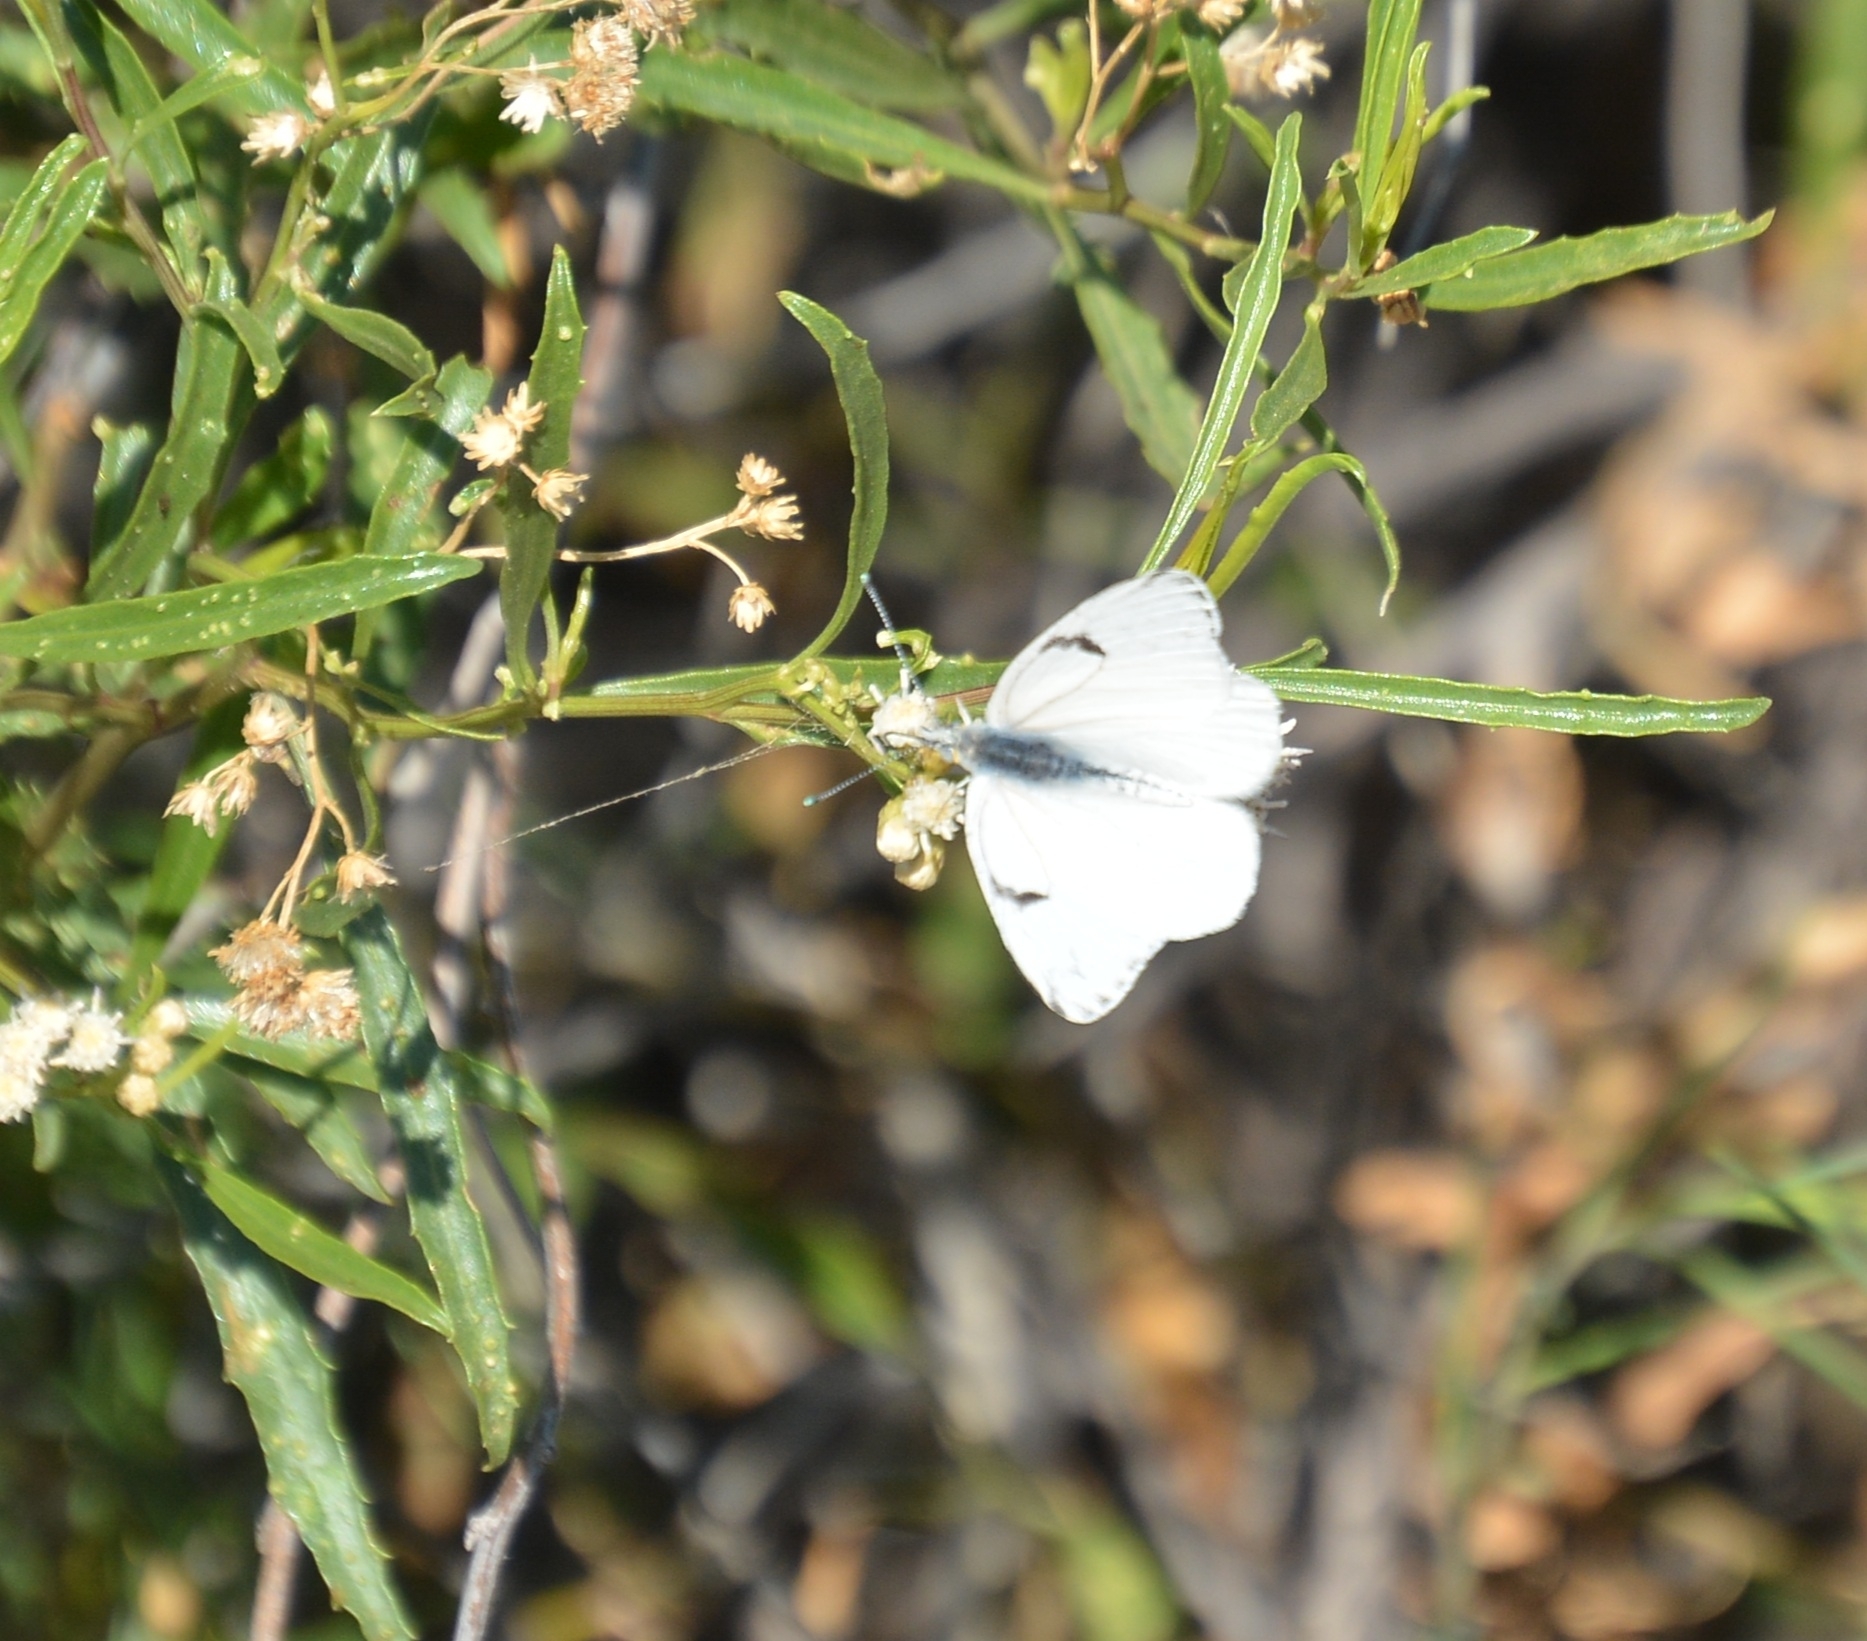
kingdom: Animalia
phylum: Arthropoda
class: Insecta
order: Lepidoptera
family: Pieridae
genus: Tatochila
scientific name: Tatochila mercedis
